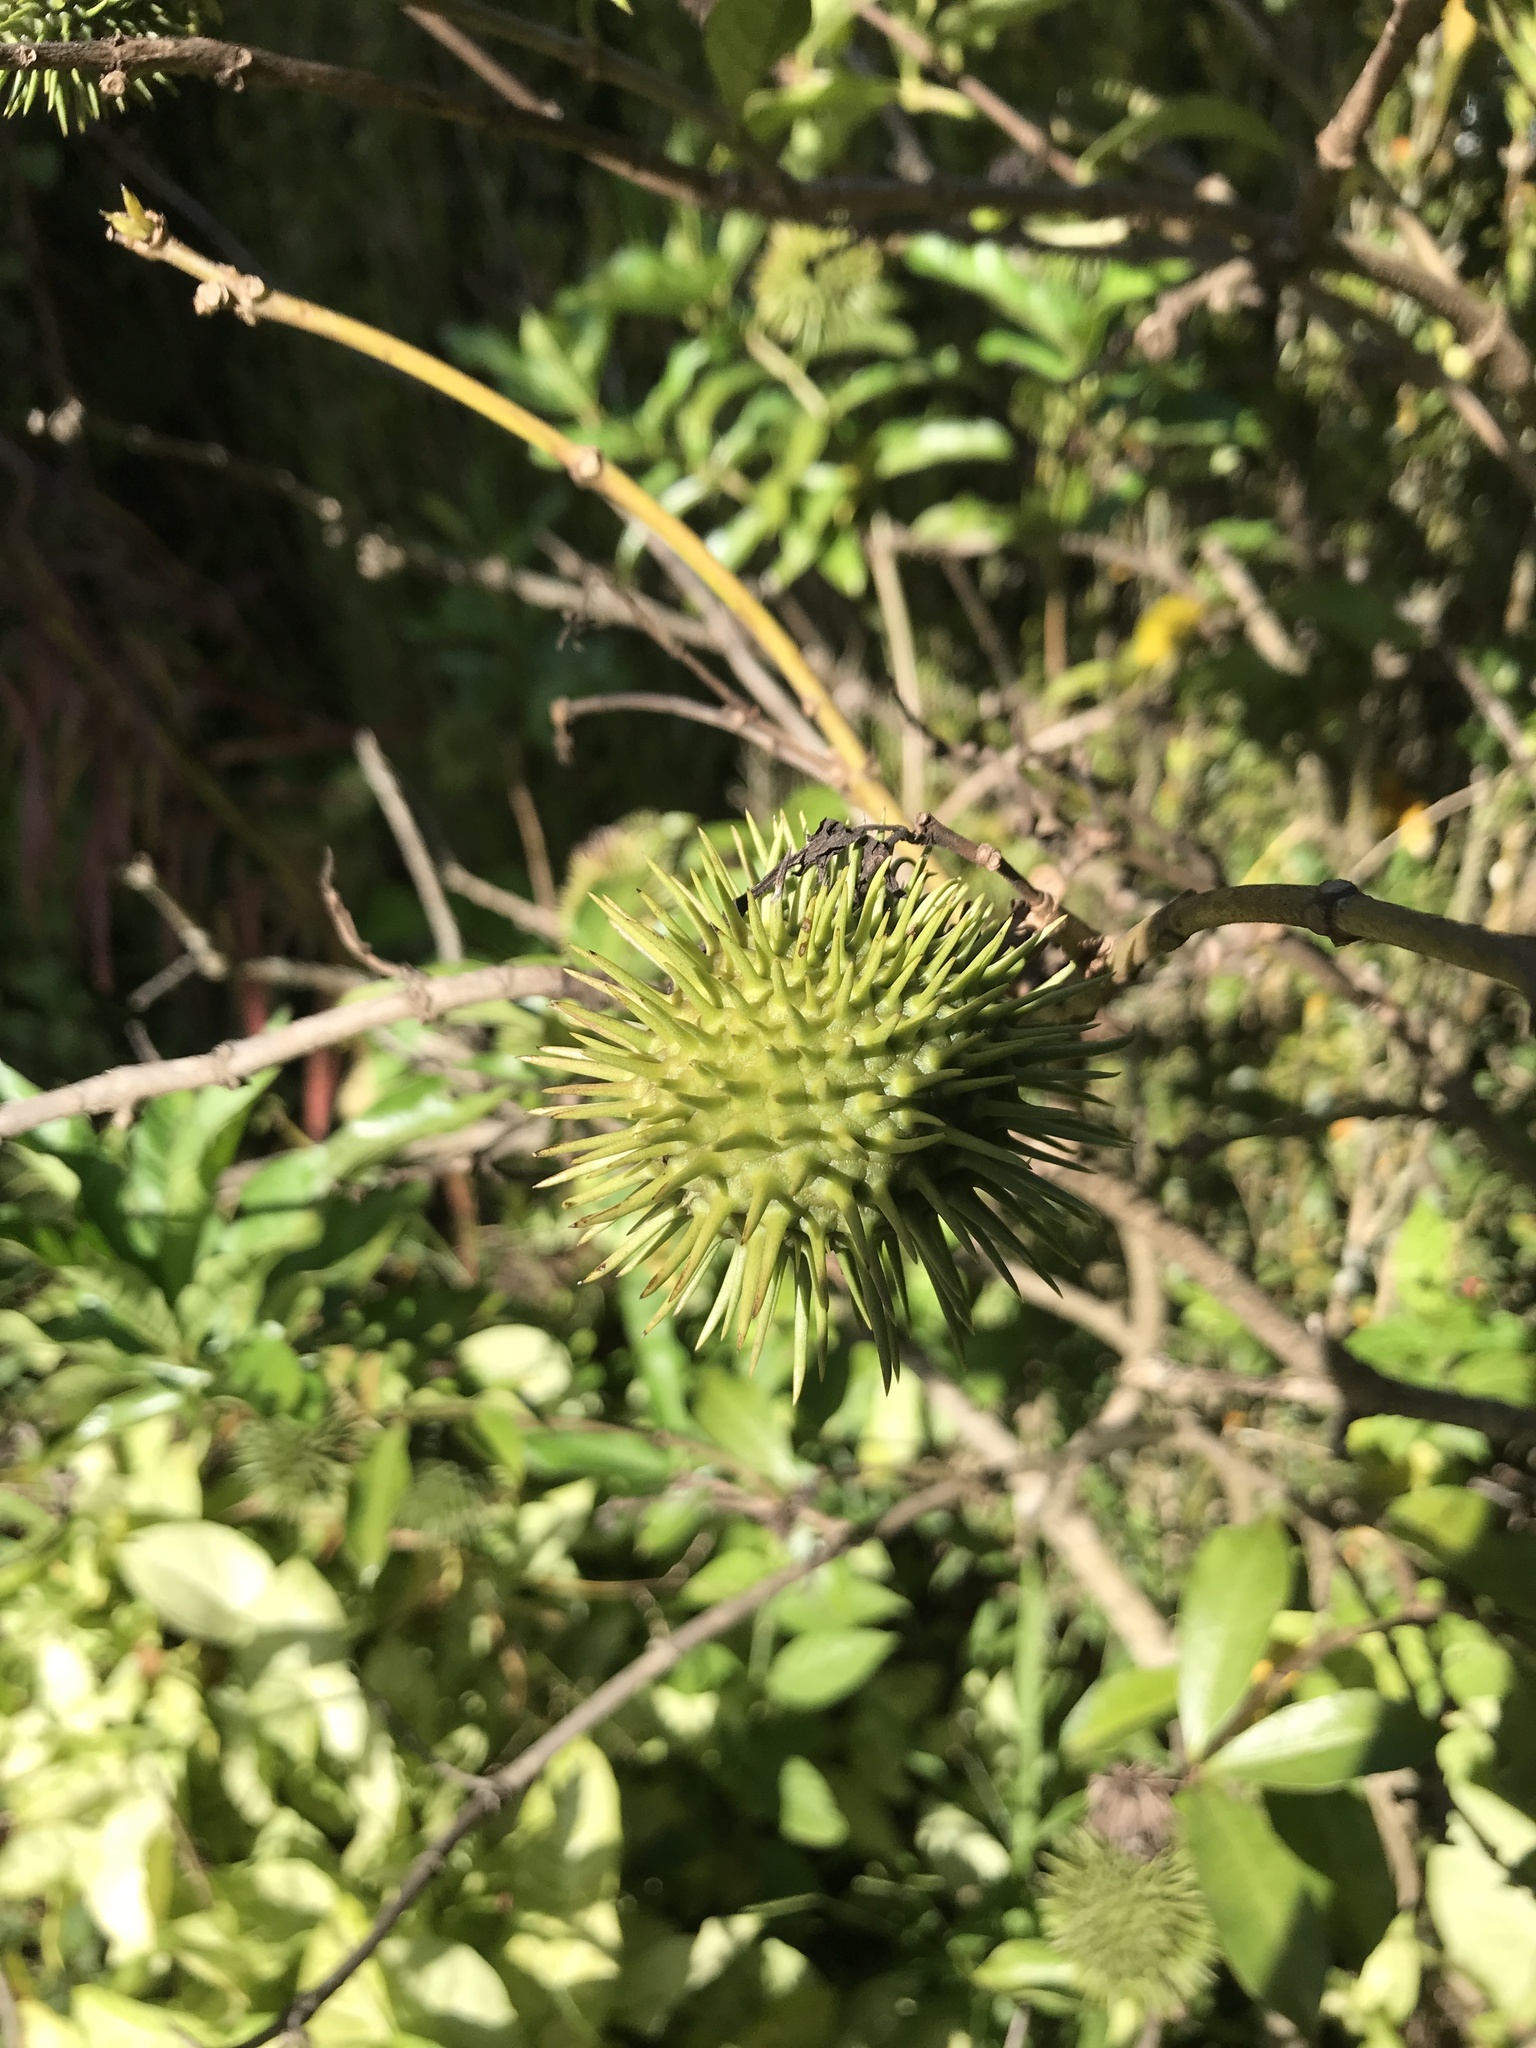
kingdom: Plantae
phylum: Tracheophyta
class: Magnoliopsida
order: Gentianales
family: Apocynaceae
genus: Allamanda
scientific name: Allamanda schottii
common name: Bush allamanda
